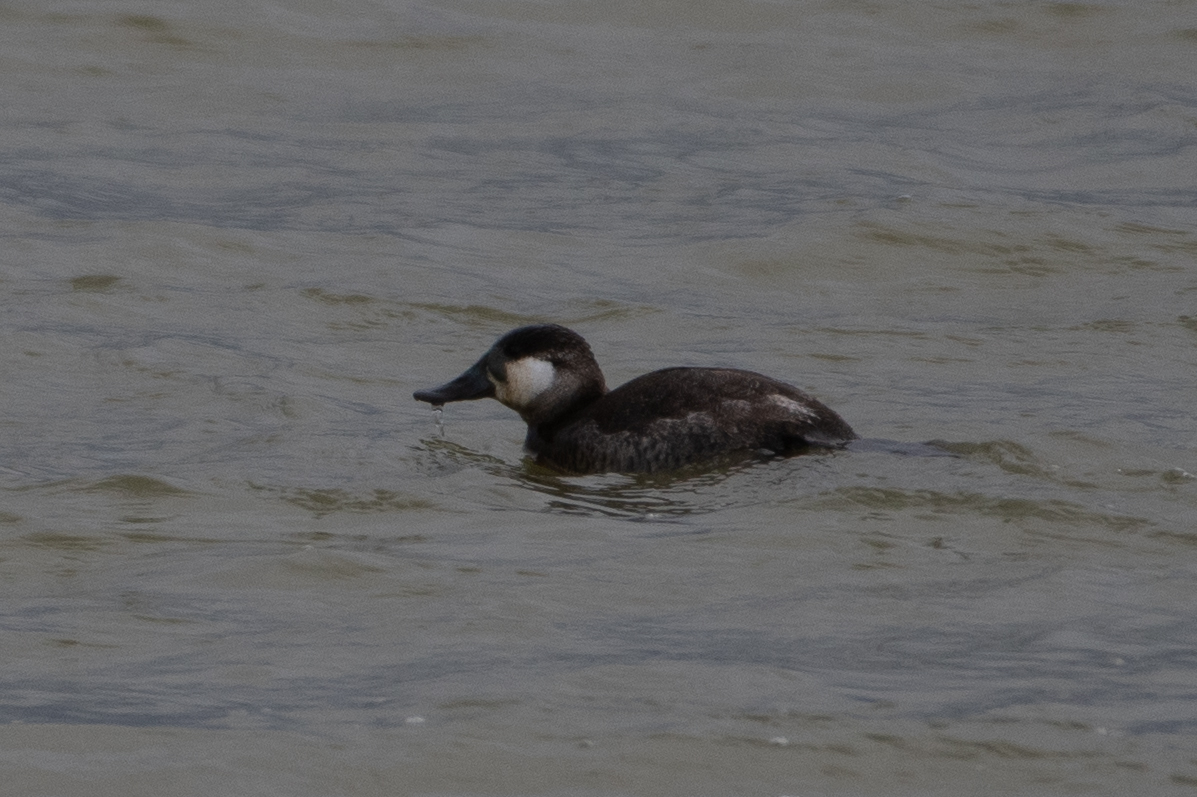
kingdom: Animalia
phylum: Chordata
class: Aves
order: Anseriformes
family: Anatidae
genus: Oxyura
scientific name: Oxyura jamaicensis
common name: Ruddy duck
